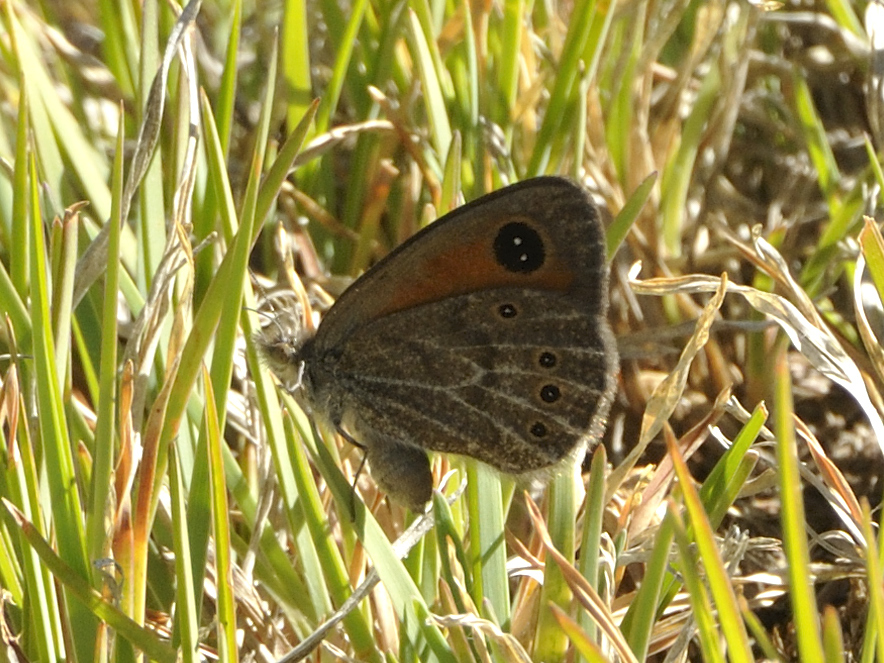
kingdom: Animalia
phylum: Arthropoda
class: Insecta
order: Lepidoptera
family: Nymphalidae
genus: Pseudonympha
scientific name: Pseudonympha magus
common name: Silver-bottom brown
